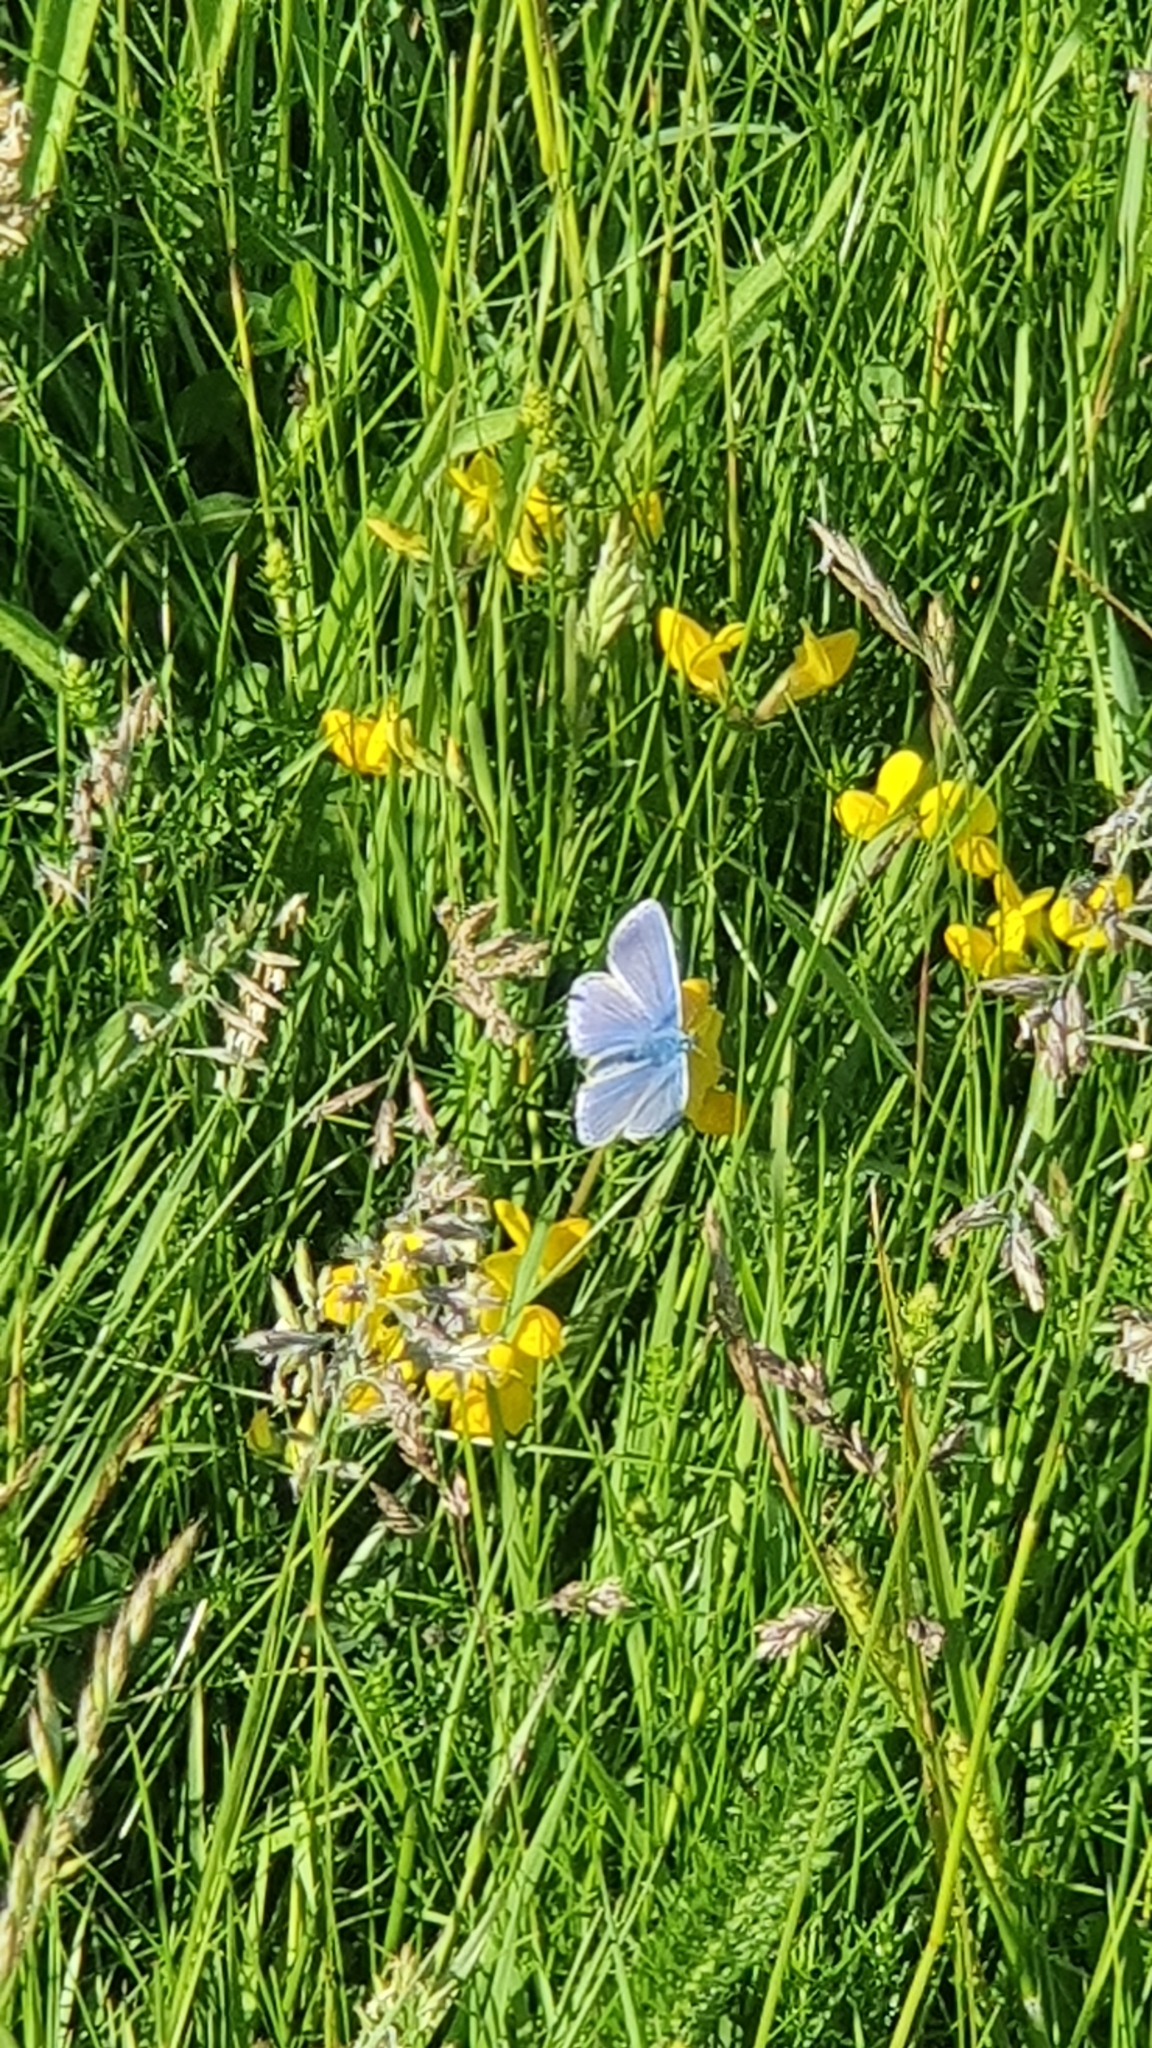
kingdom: Animalia
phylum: Arthropoda
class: Insecta
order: Lepidoptera
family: Lycaenidae
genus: Polyommatus
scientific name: Polyommatus icarus
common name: Common blue
